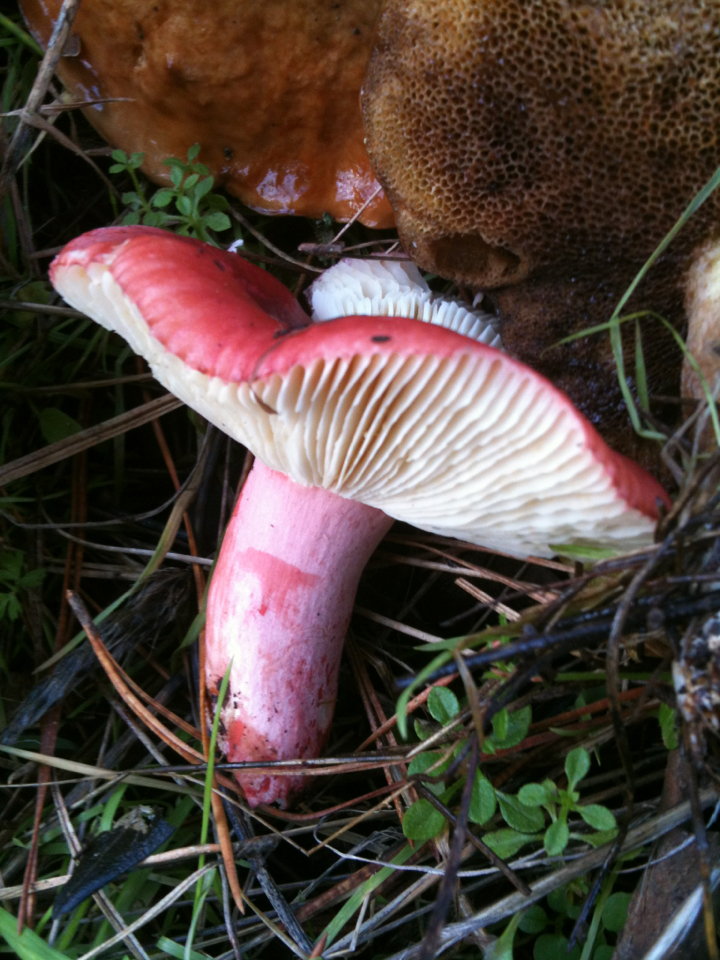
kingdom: Fungi
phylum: Basidiomycota
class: Agaricomycetes
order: Russulales
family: Russulaceae
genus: Russula
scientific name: Russula sanguinaria
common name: Bloody brittlegill
